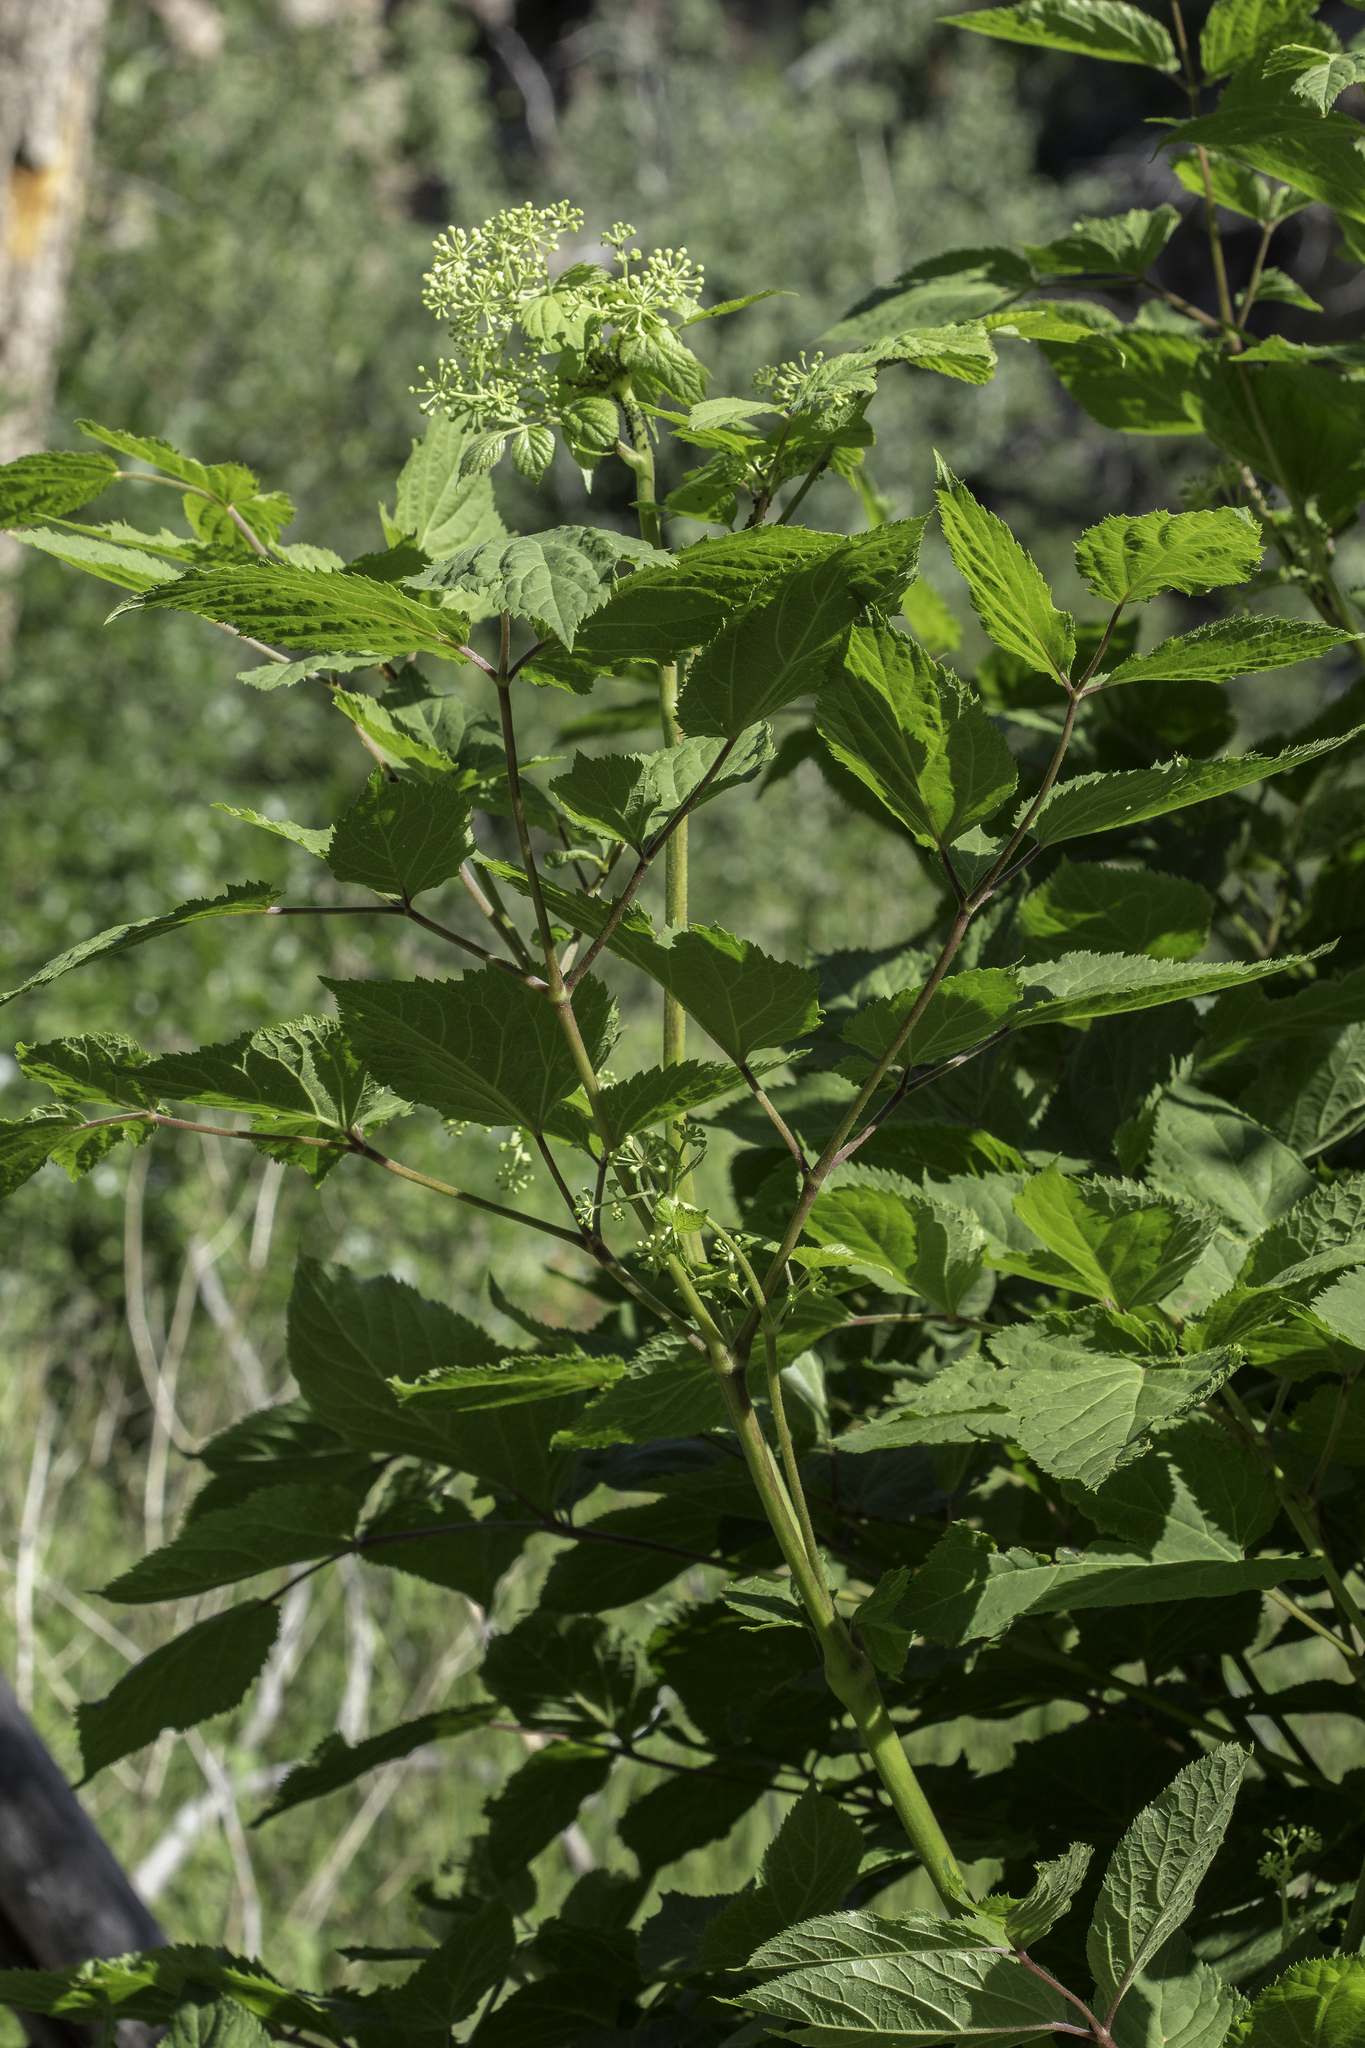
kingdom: Plantae
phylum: Tracheophyta
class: Magnoliopsida
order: Apiales
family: Araliaceae
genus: Aralia
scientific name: Aralia bicrenata
